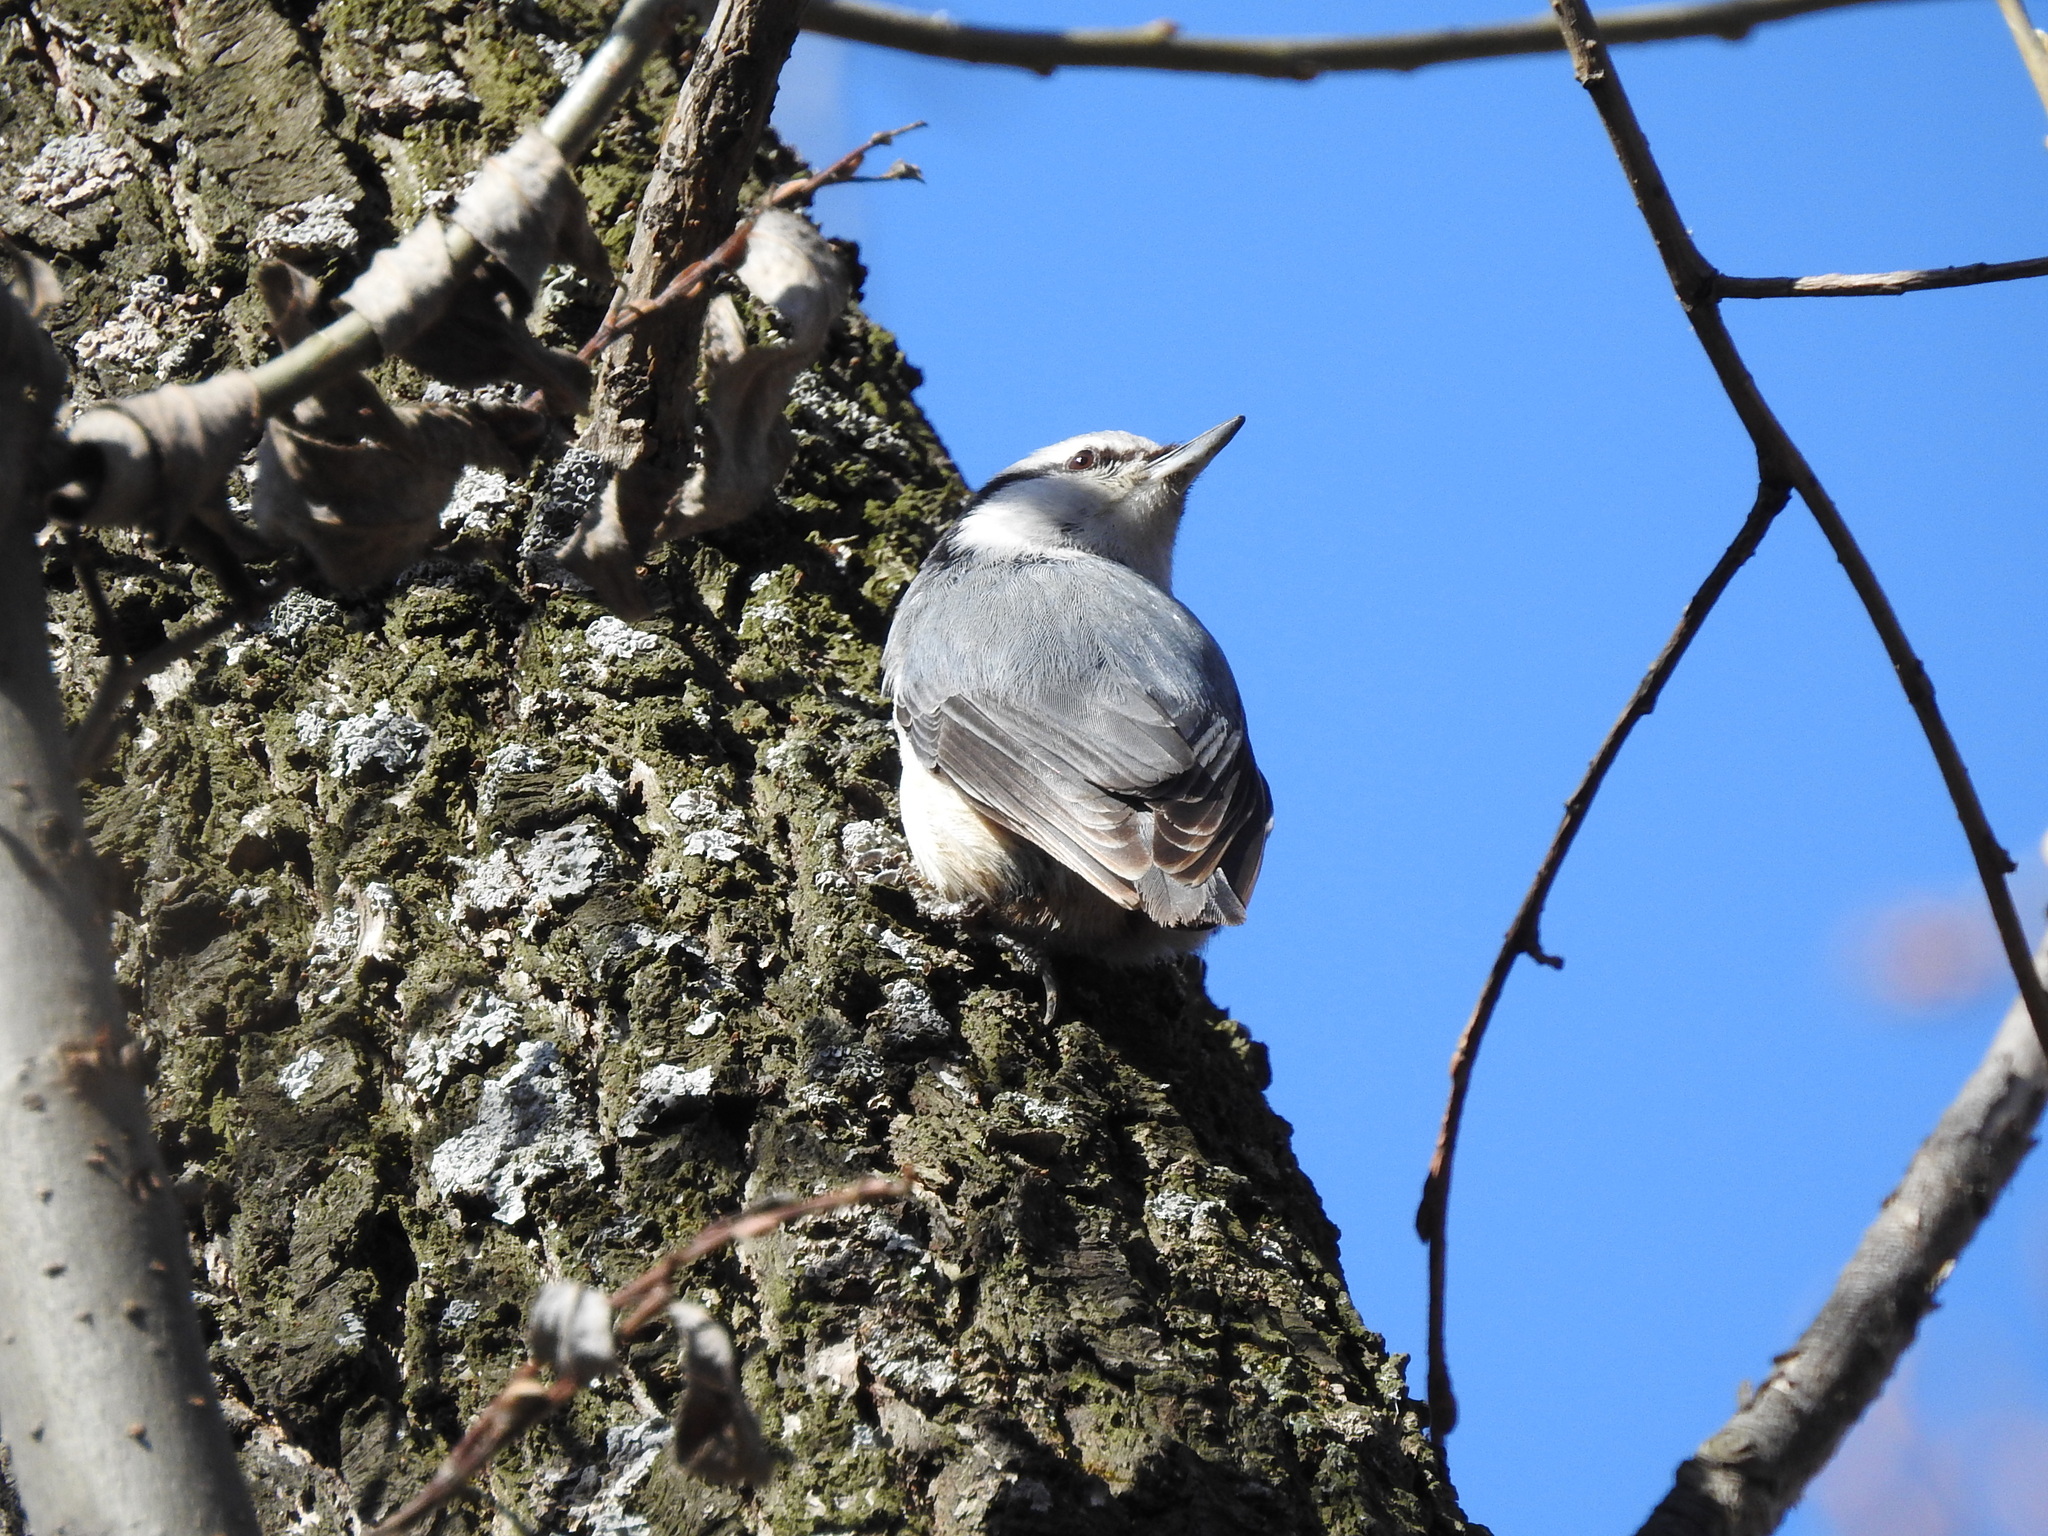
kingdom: Animalia
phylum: Chordata
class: Aves
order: Passeriformes
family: Sittidae
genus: Sitta
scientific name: Sitta europaea
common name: Eurasian nuthatch
